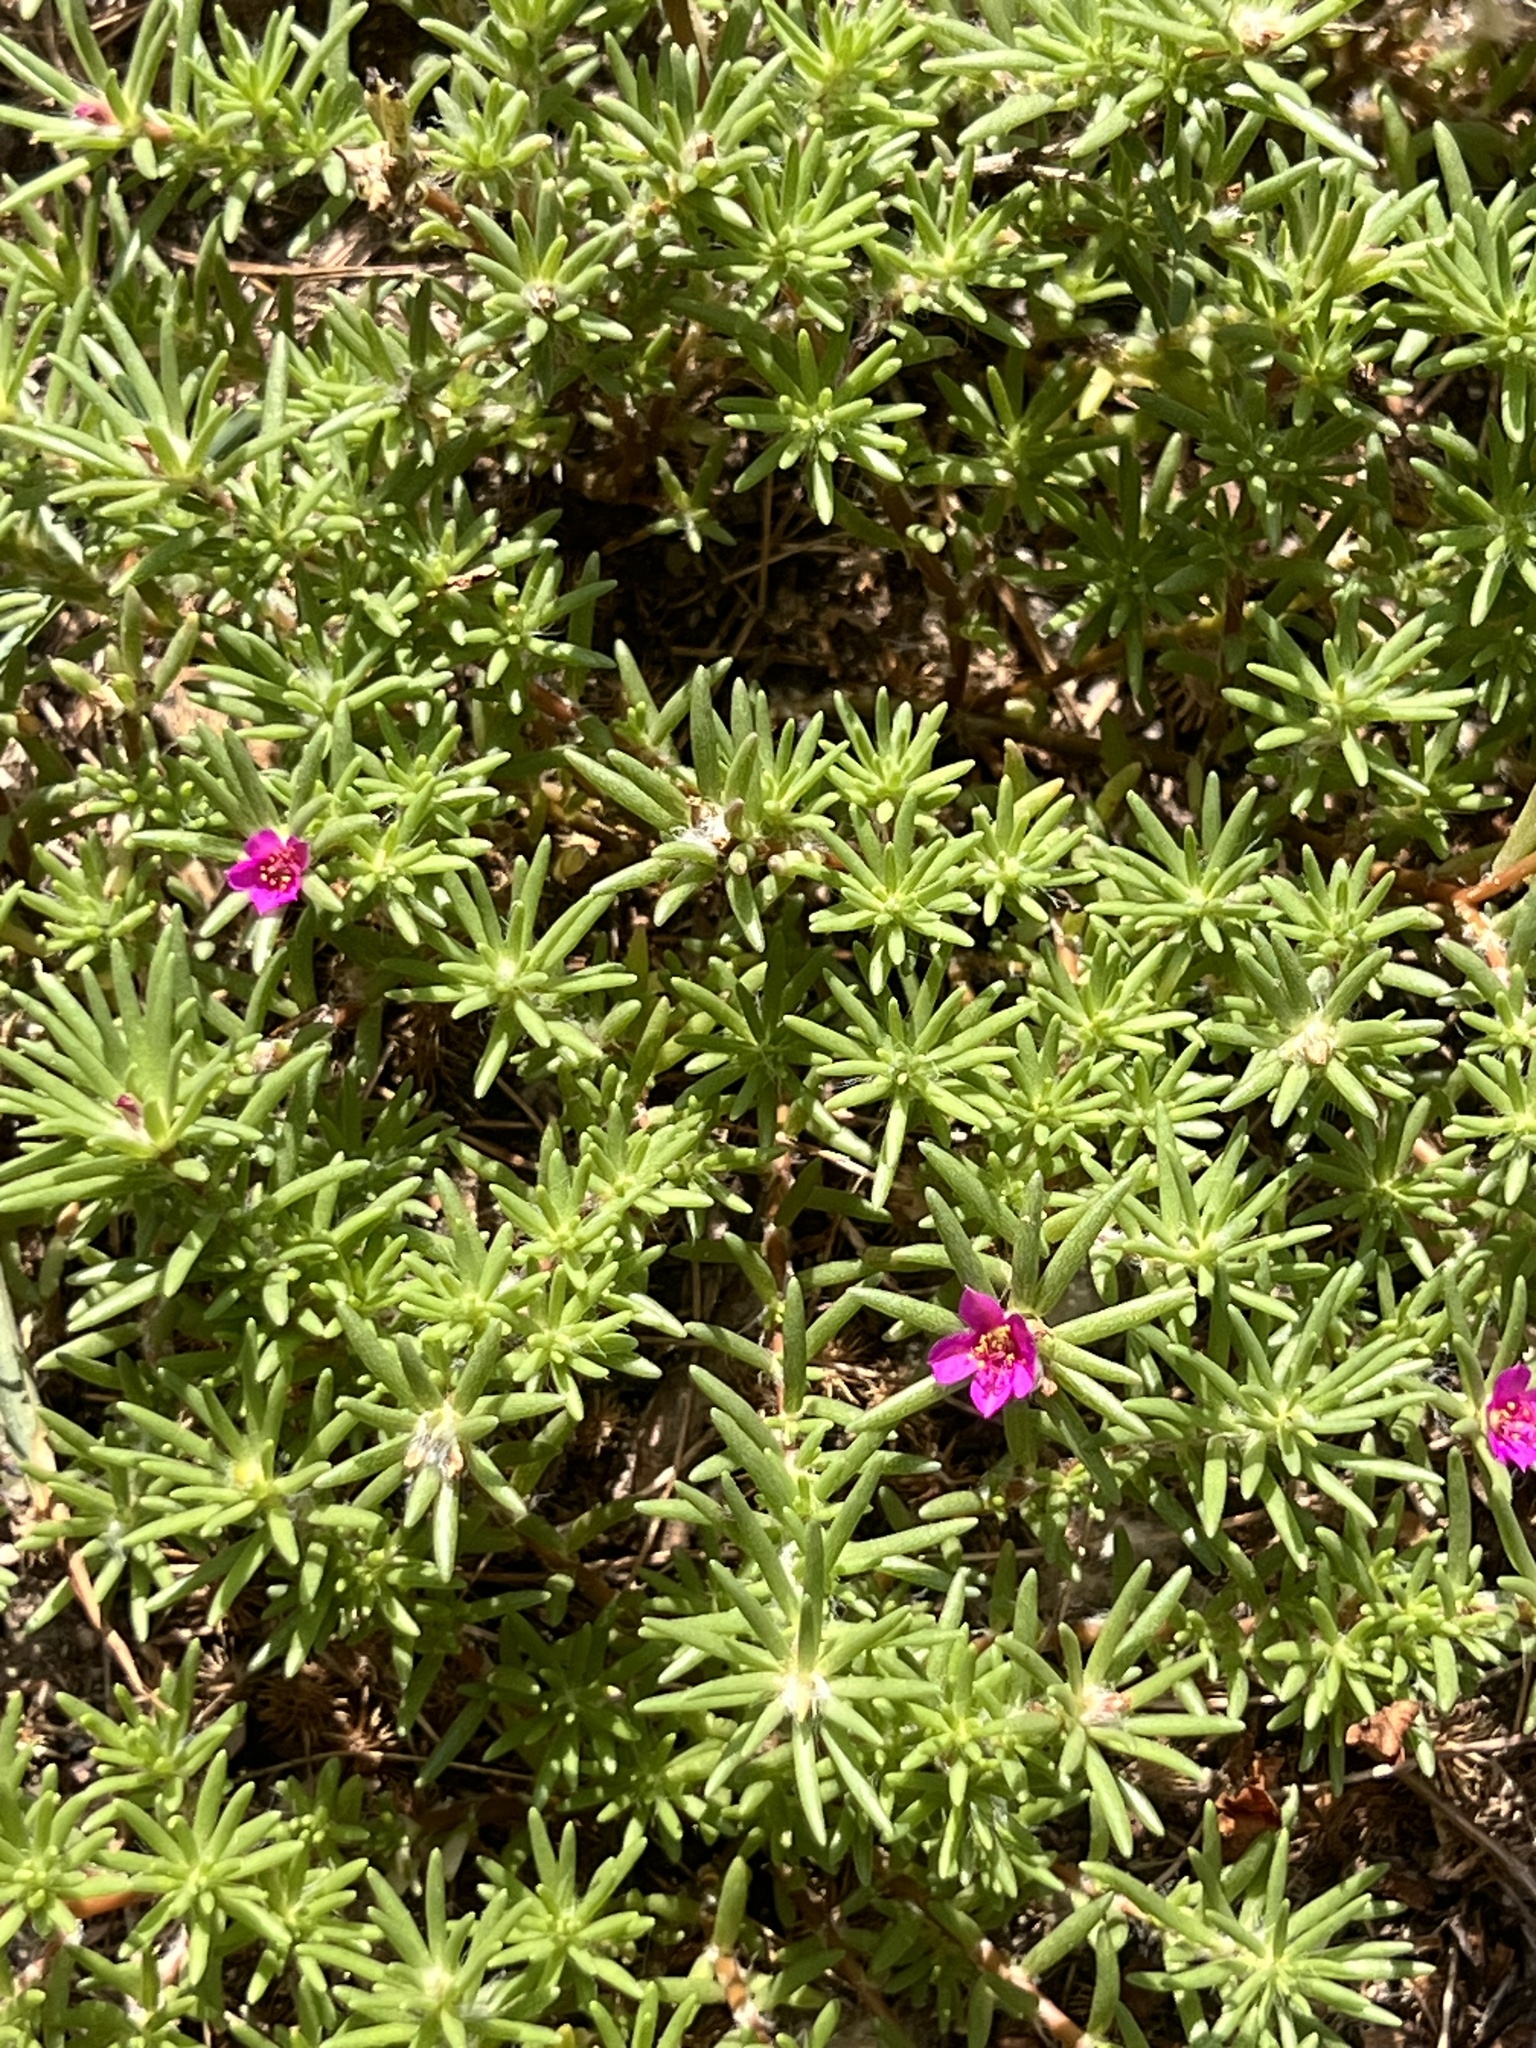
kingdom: Plantae
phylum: Tracheophyta
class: Magnoliopsida
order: Caryophyllales
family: Portulacaceae
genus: Portulaca
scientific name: Portulaca pilosa
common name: Kiss me quick
